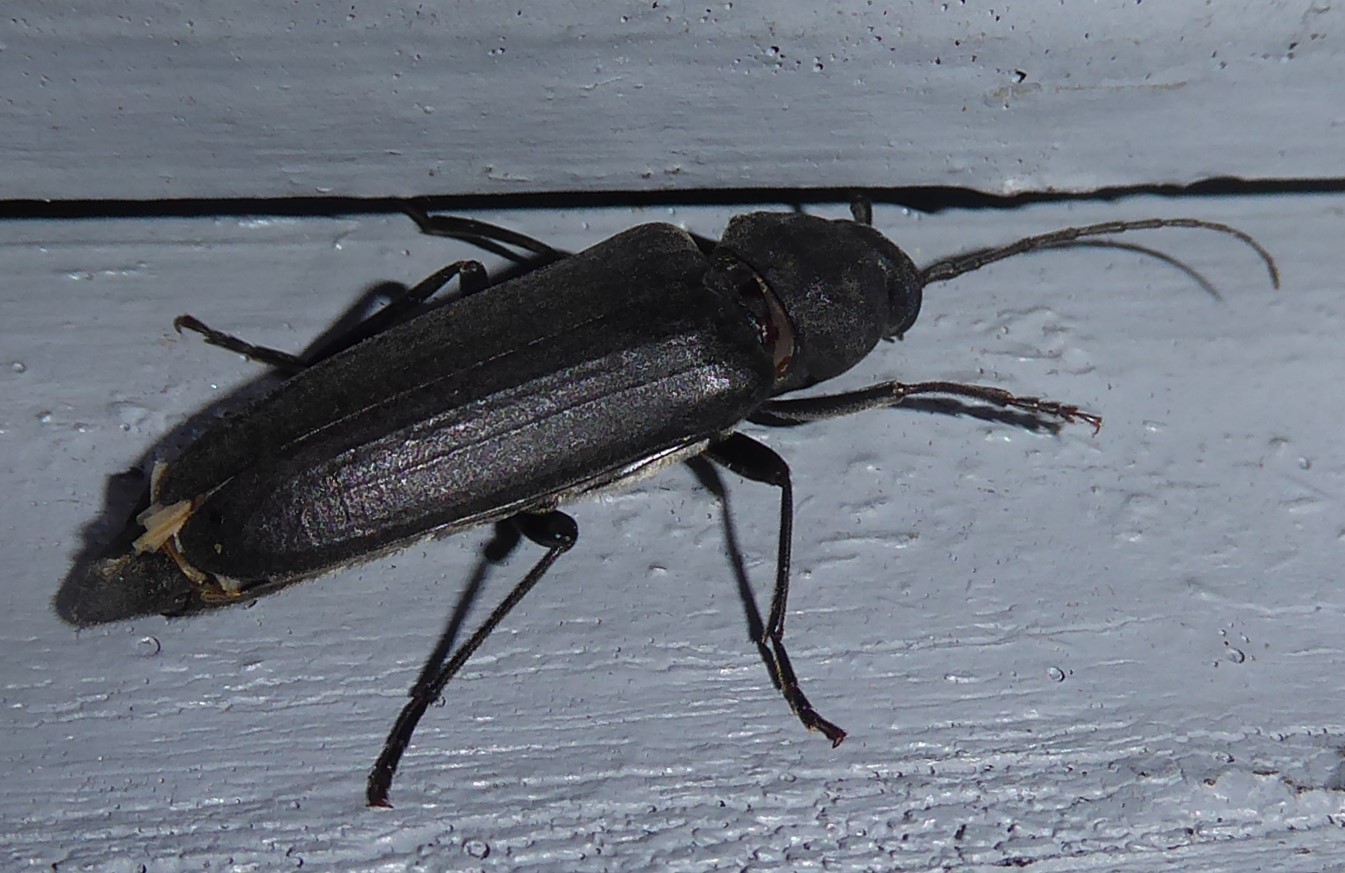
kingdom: Animalia
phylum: Arthropoda
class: Insecta
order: Coleoptera
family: Cerambycidae
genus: Arhopalus
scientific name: Arhopalus ferus
